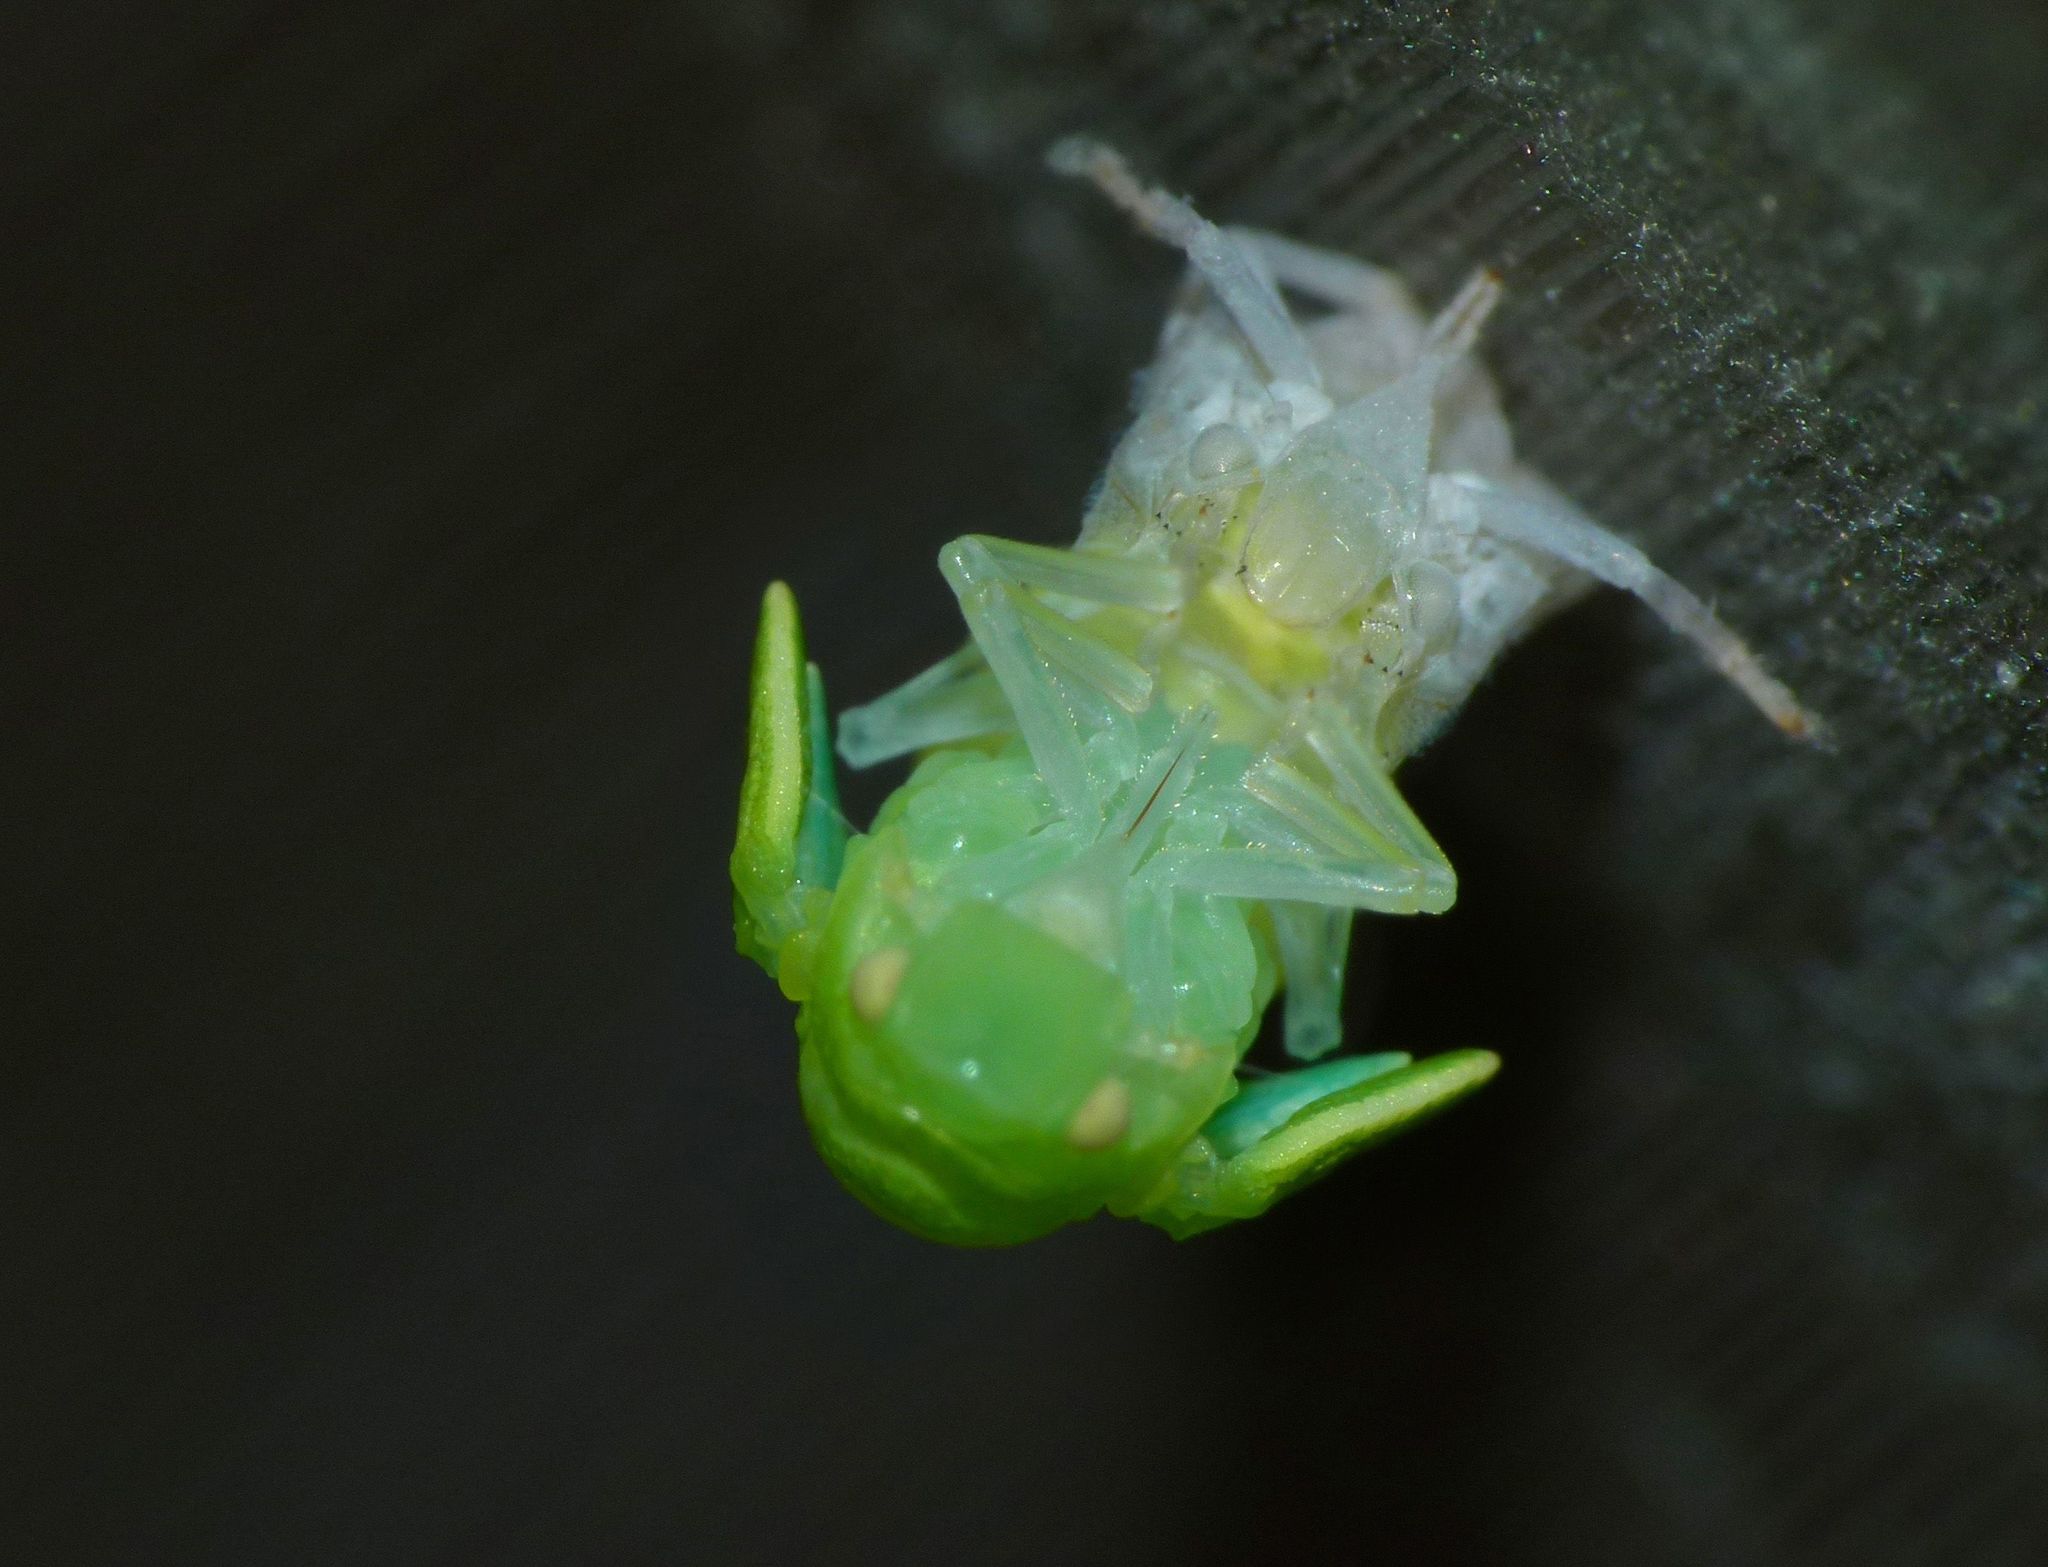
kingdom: Animalia
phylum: Arthropoda
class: Insecta
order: Hemiptera
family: Flatidae
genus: Siphanta
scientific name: Siphanta acuta
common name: Torpedo bug
